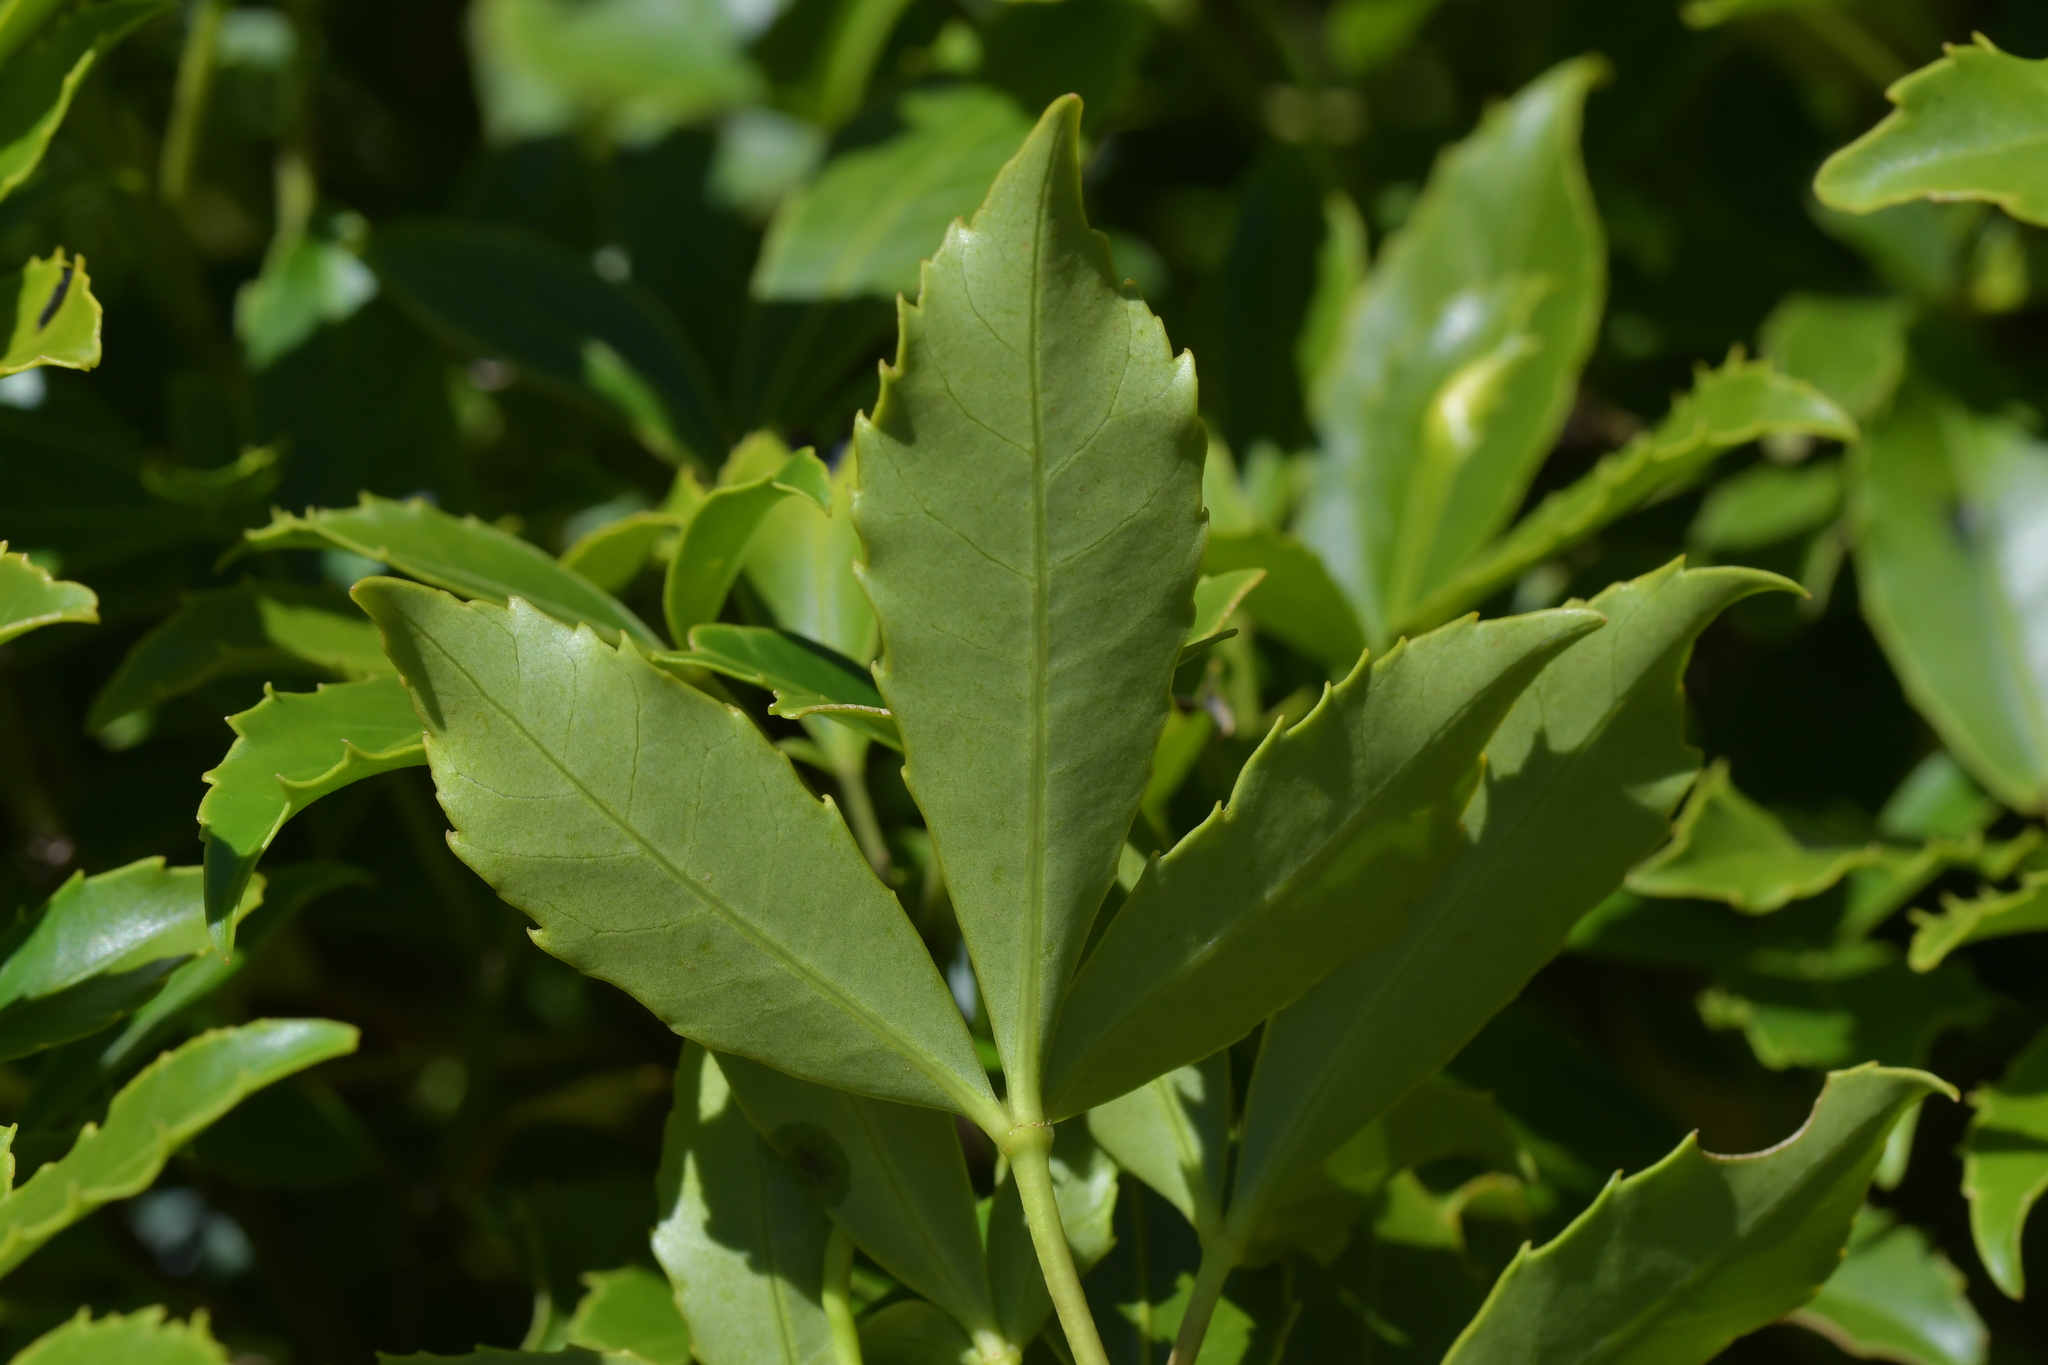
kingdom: Plantae
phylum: Tracheophyta
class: Magnoliopsida
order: Apiales
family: Araliaceae
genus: Neopanax
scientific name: Neopanax colensoi
